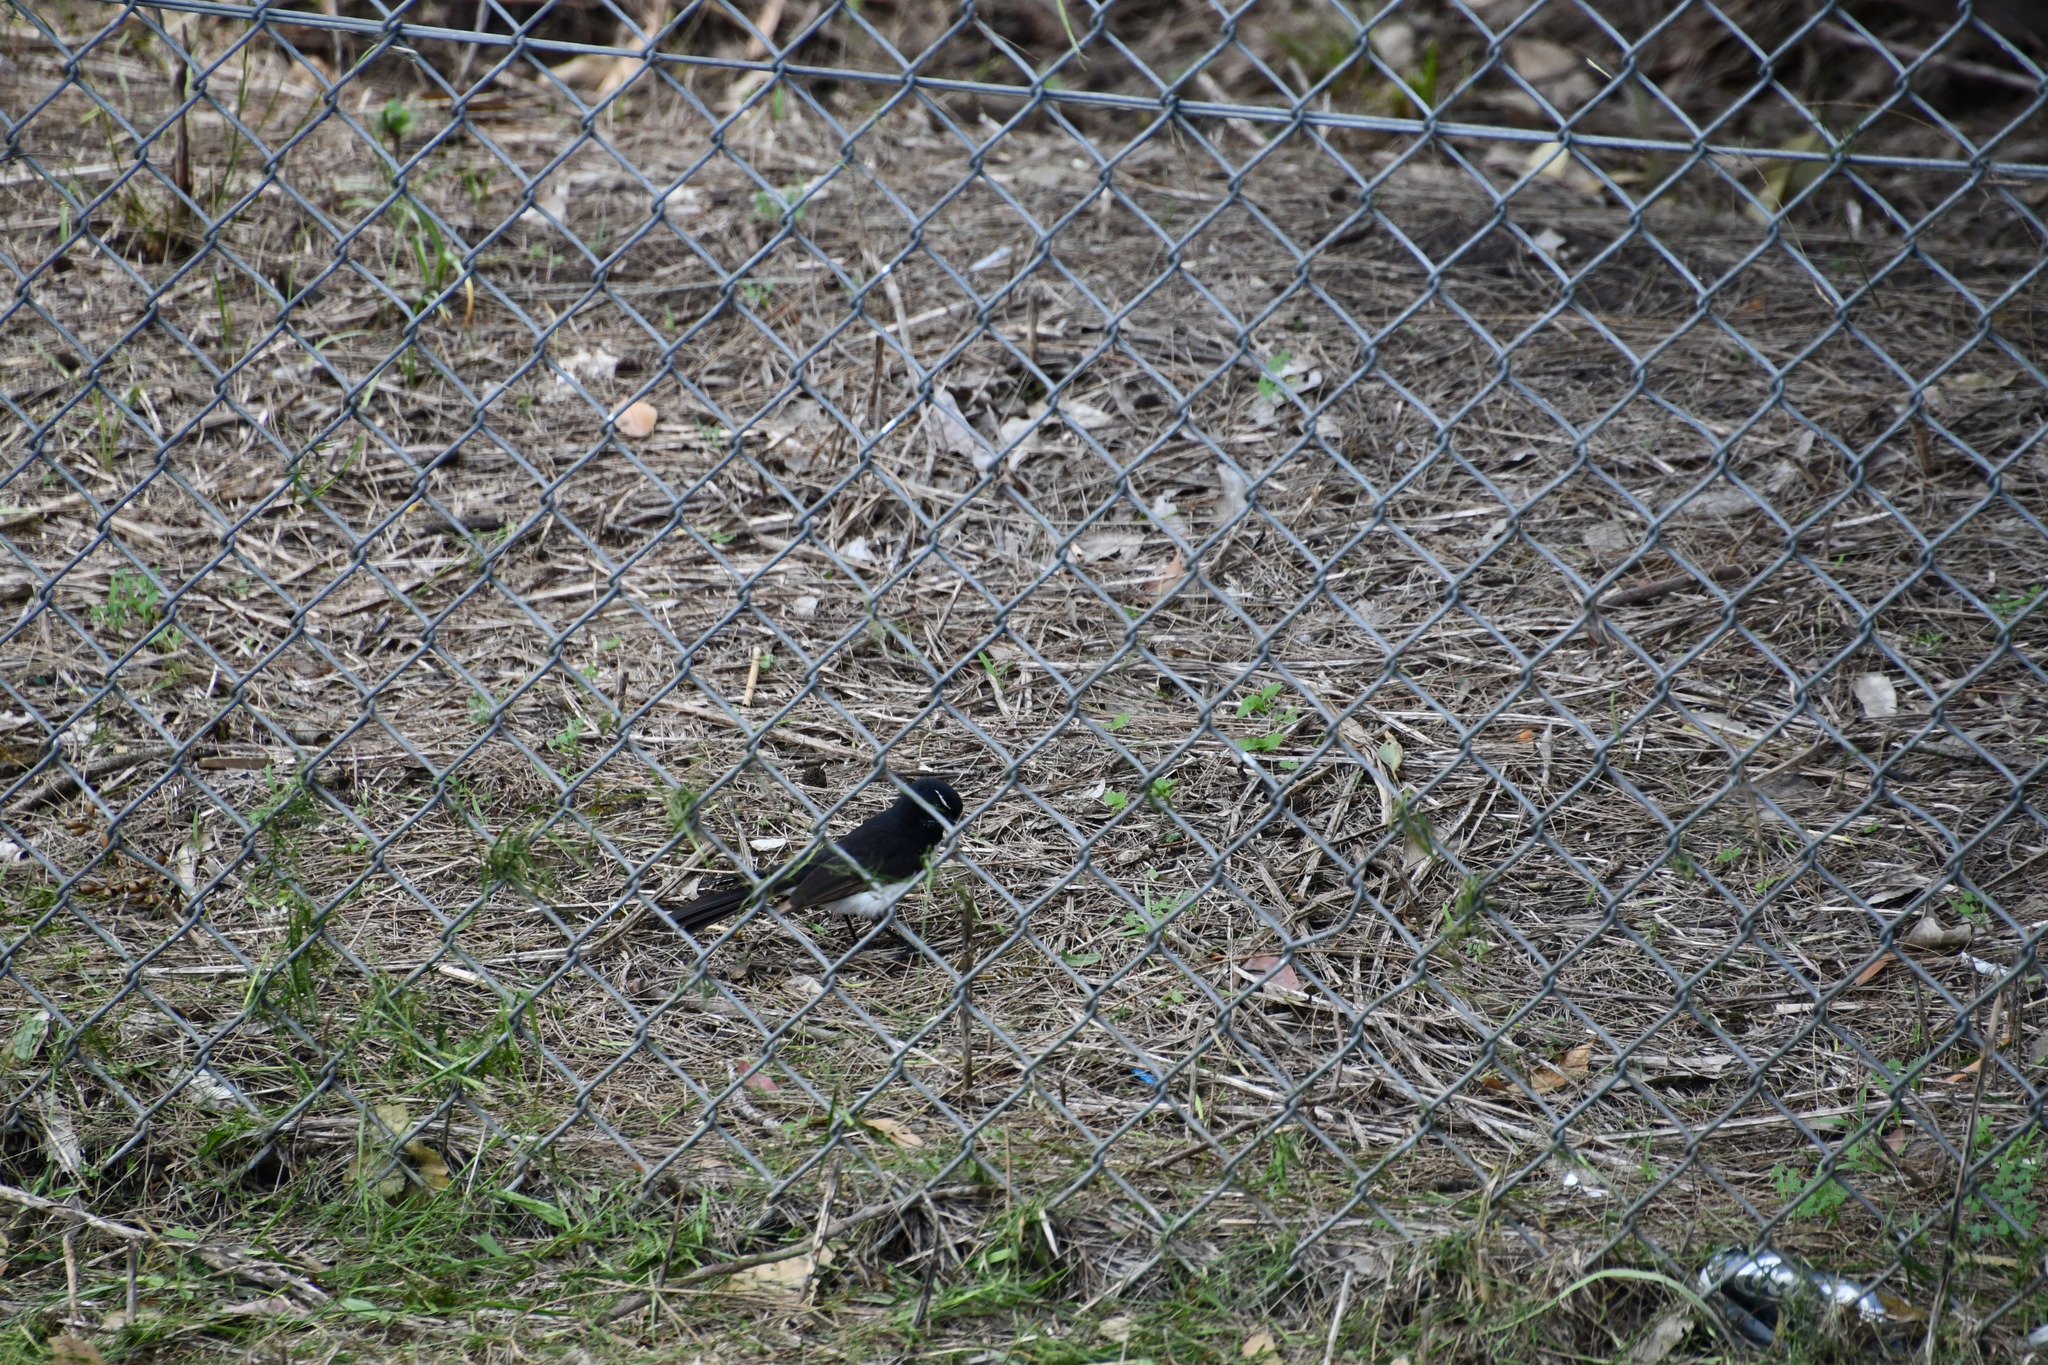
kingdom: Animalia
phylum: Chordata
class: Aves
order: Passeriformes
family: Rhipiduridae
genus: Rhipidura
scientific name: Rhipidura leucophrys
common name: Willie wagtail
